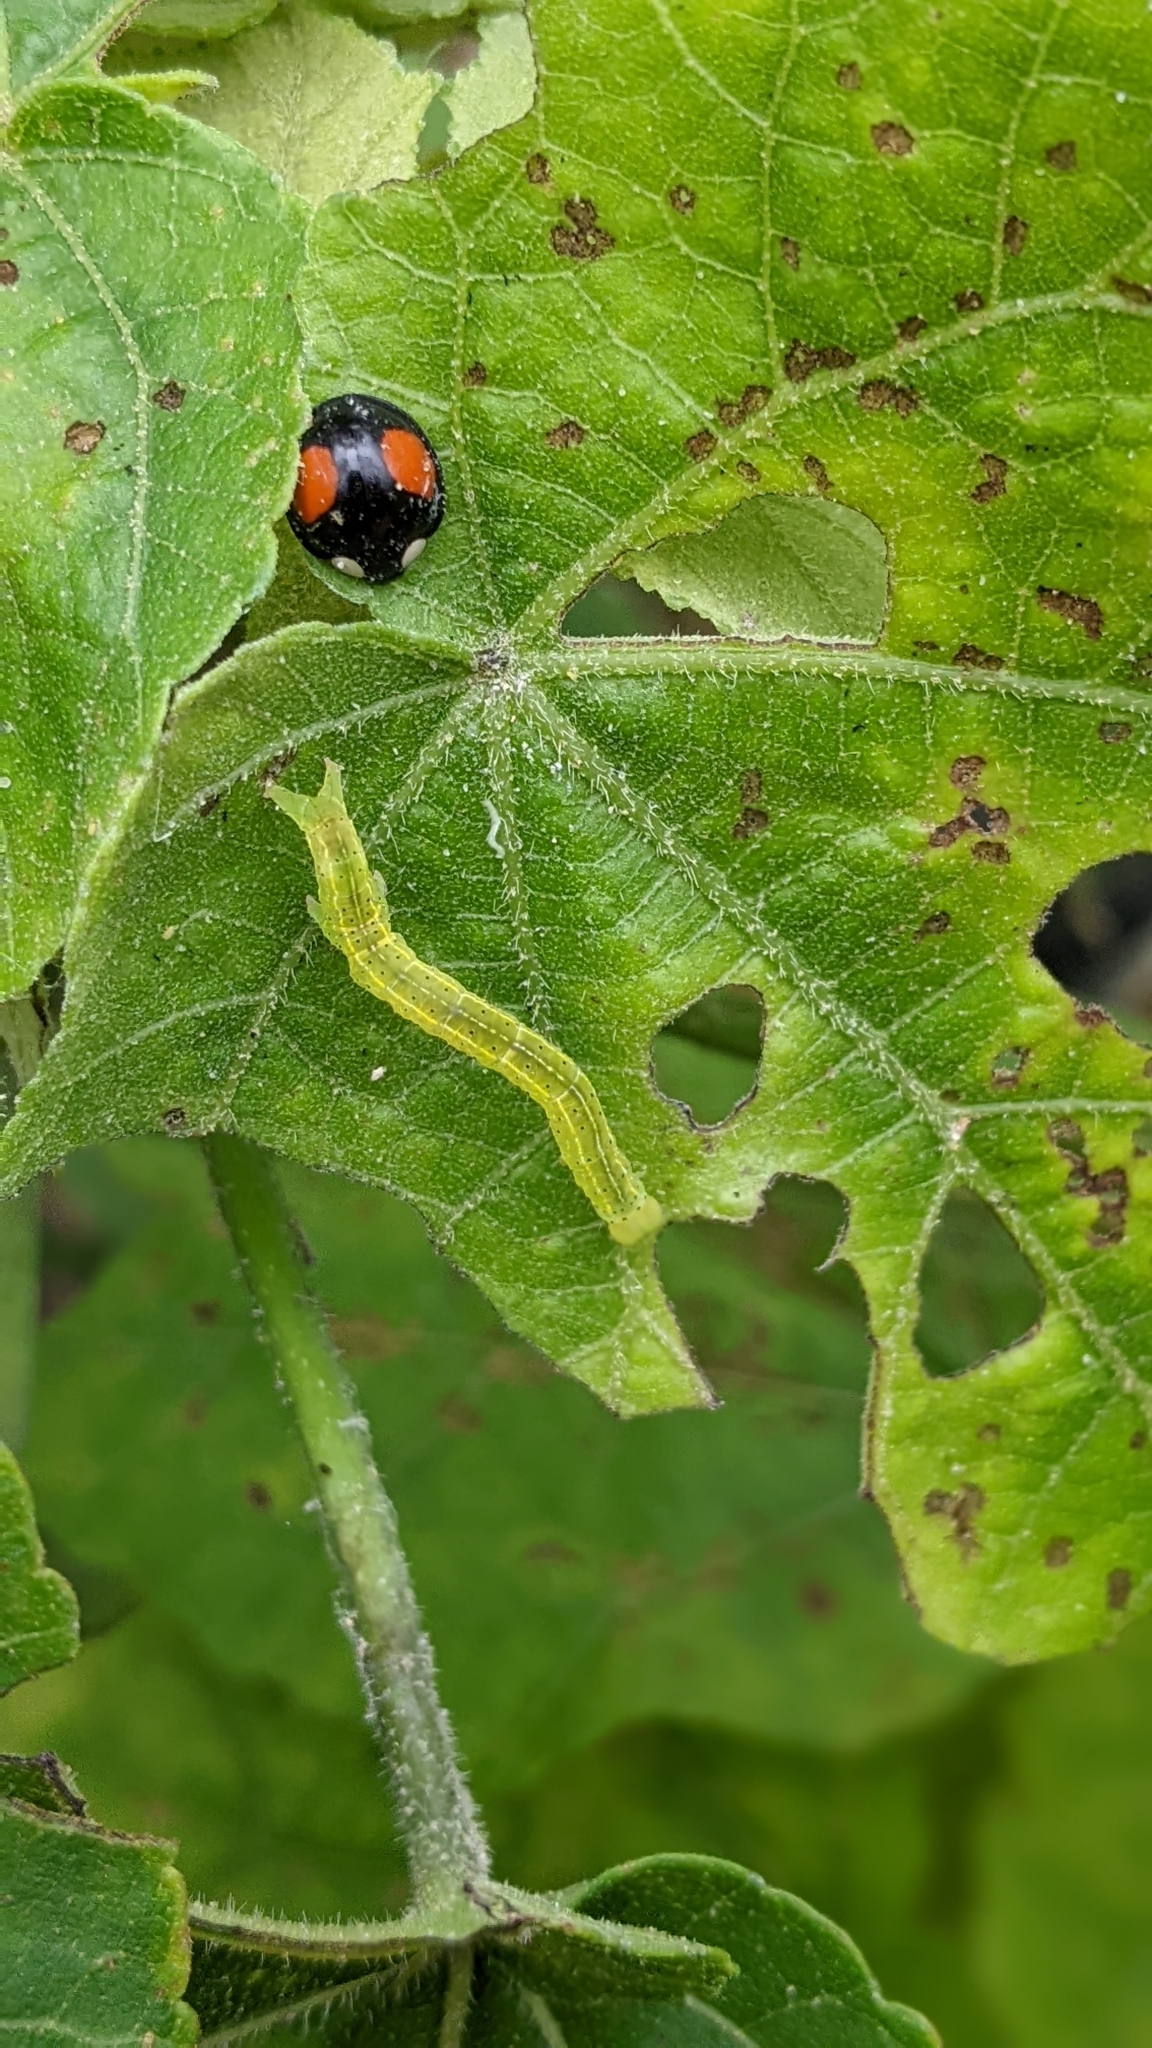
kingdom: Animalia
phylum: Arthropoda
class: Insecta
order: Coleoptera
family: Coccinellidae
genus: Coelophora
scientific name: Coelophora saucia
